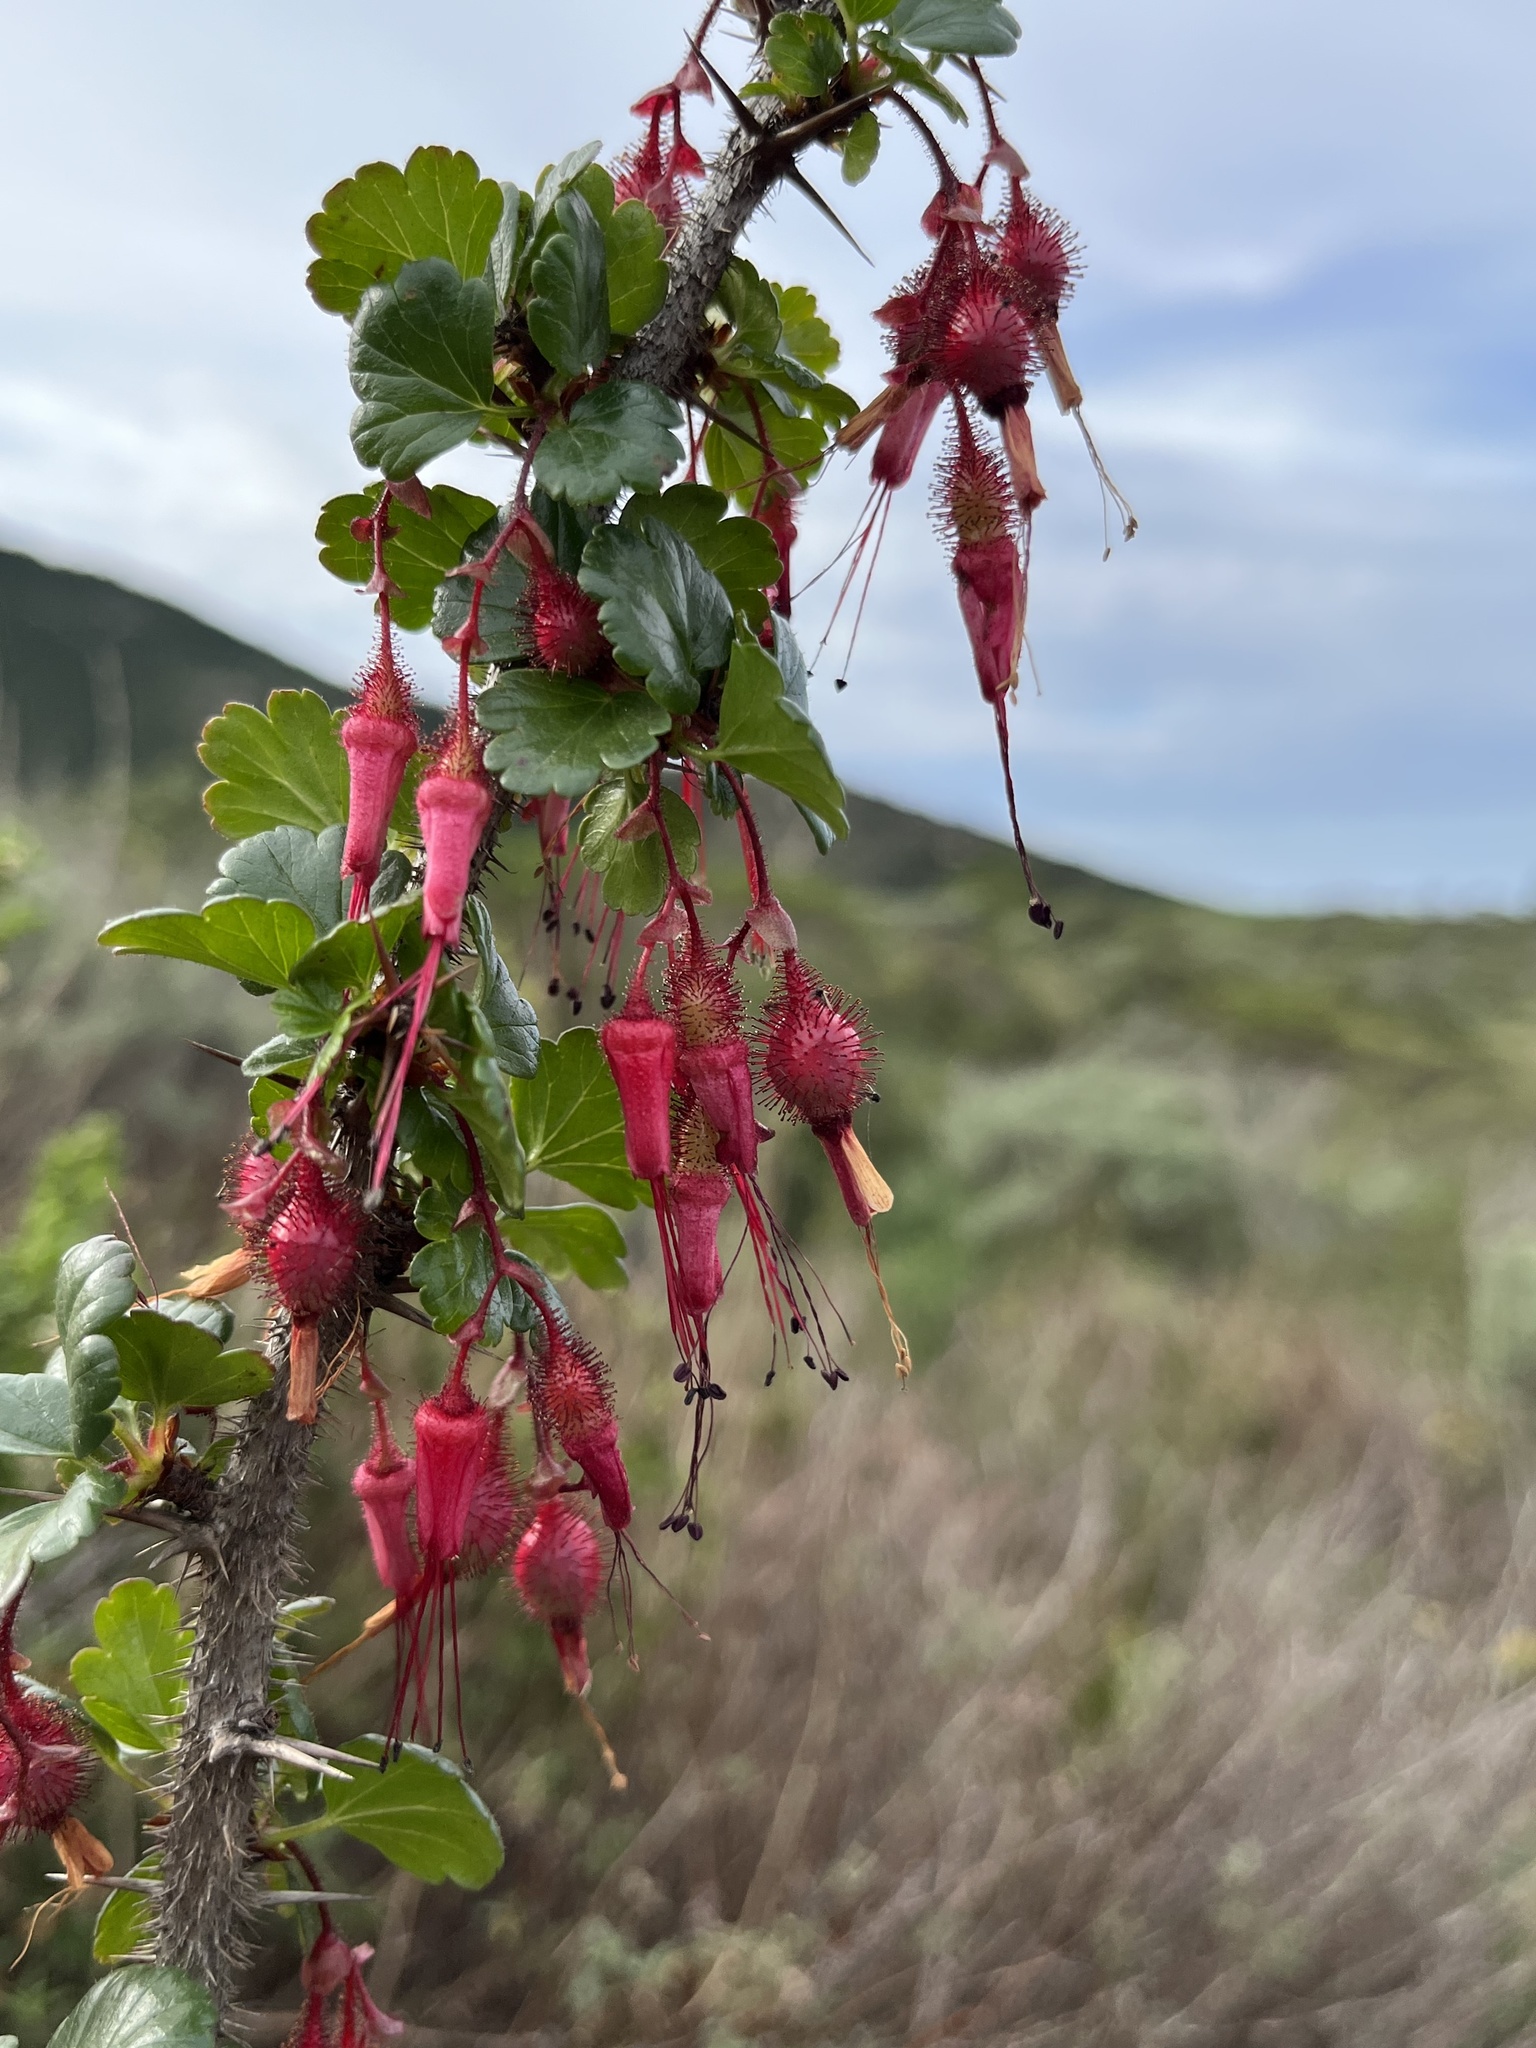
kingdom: Plantae
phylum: Tracheophyta
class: Magnoliopsida
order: Saxifragales
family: Grossulariaceae
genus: Ribes
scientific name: Ribes speciosum
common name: Fuchsia-flower gooseberry
